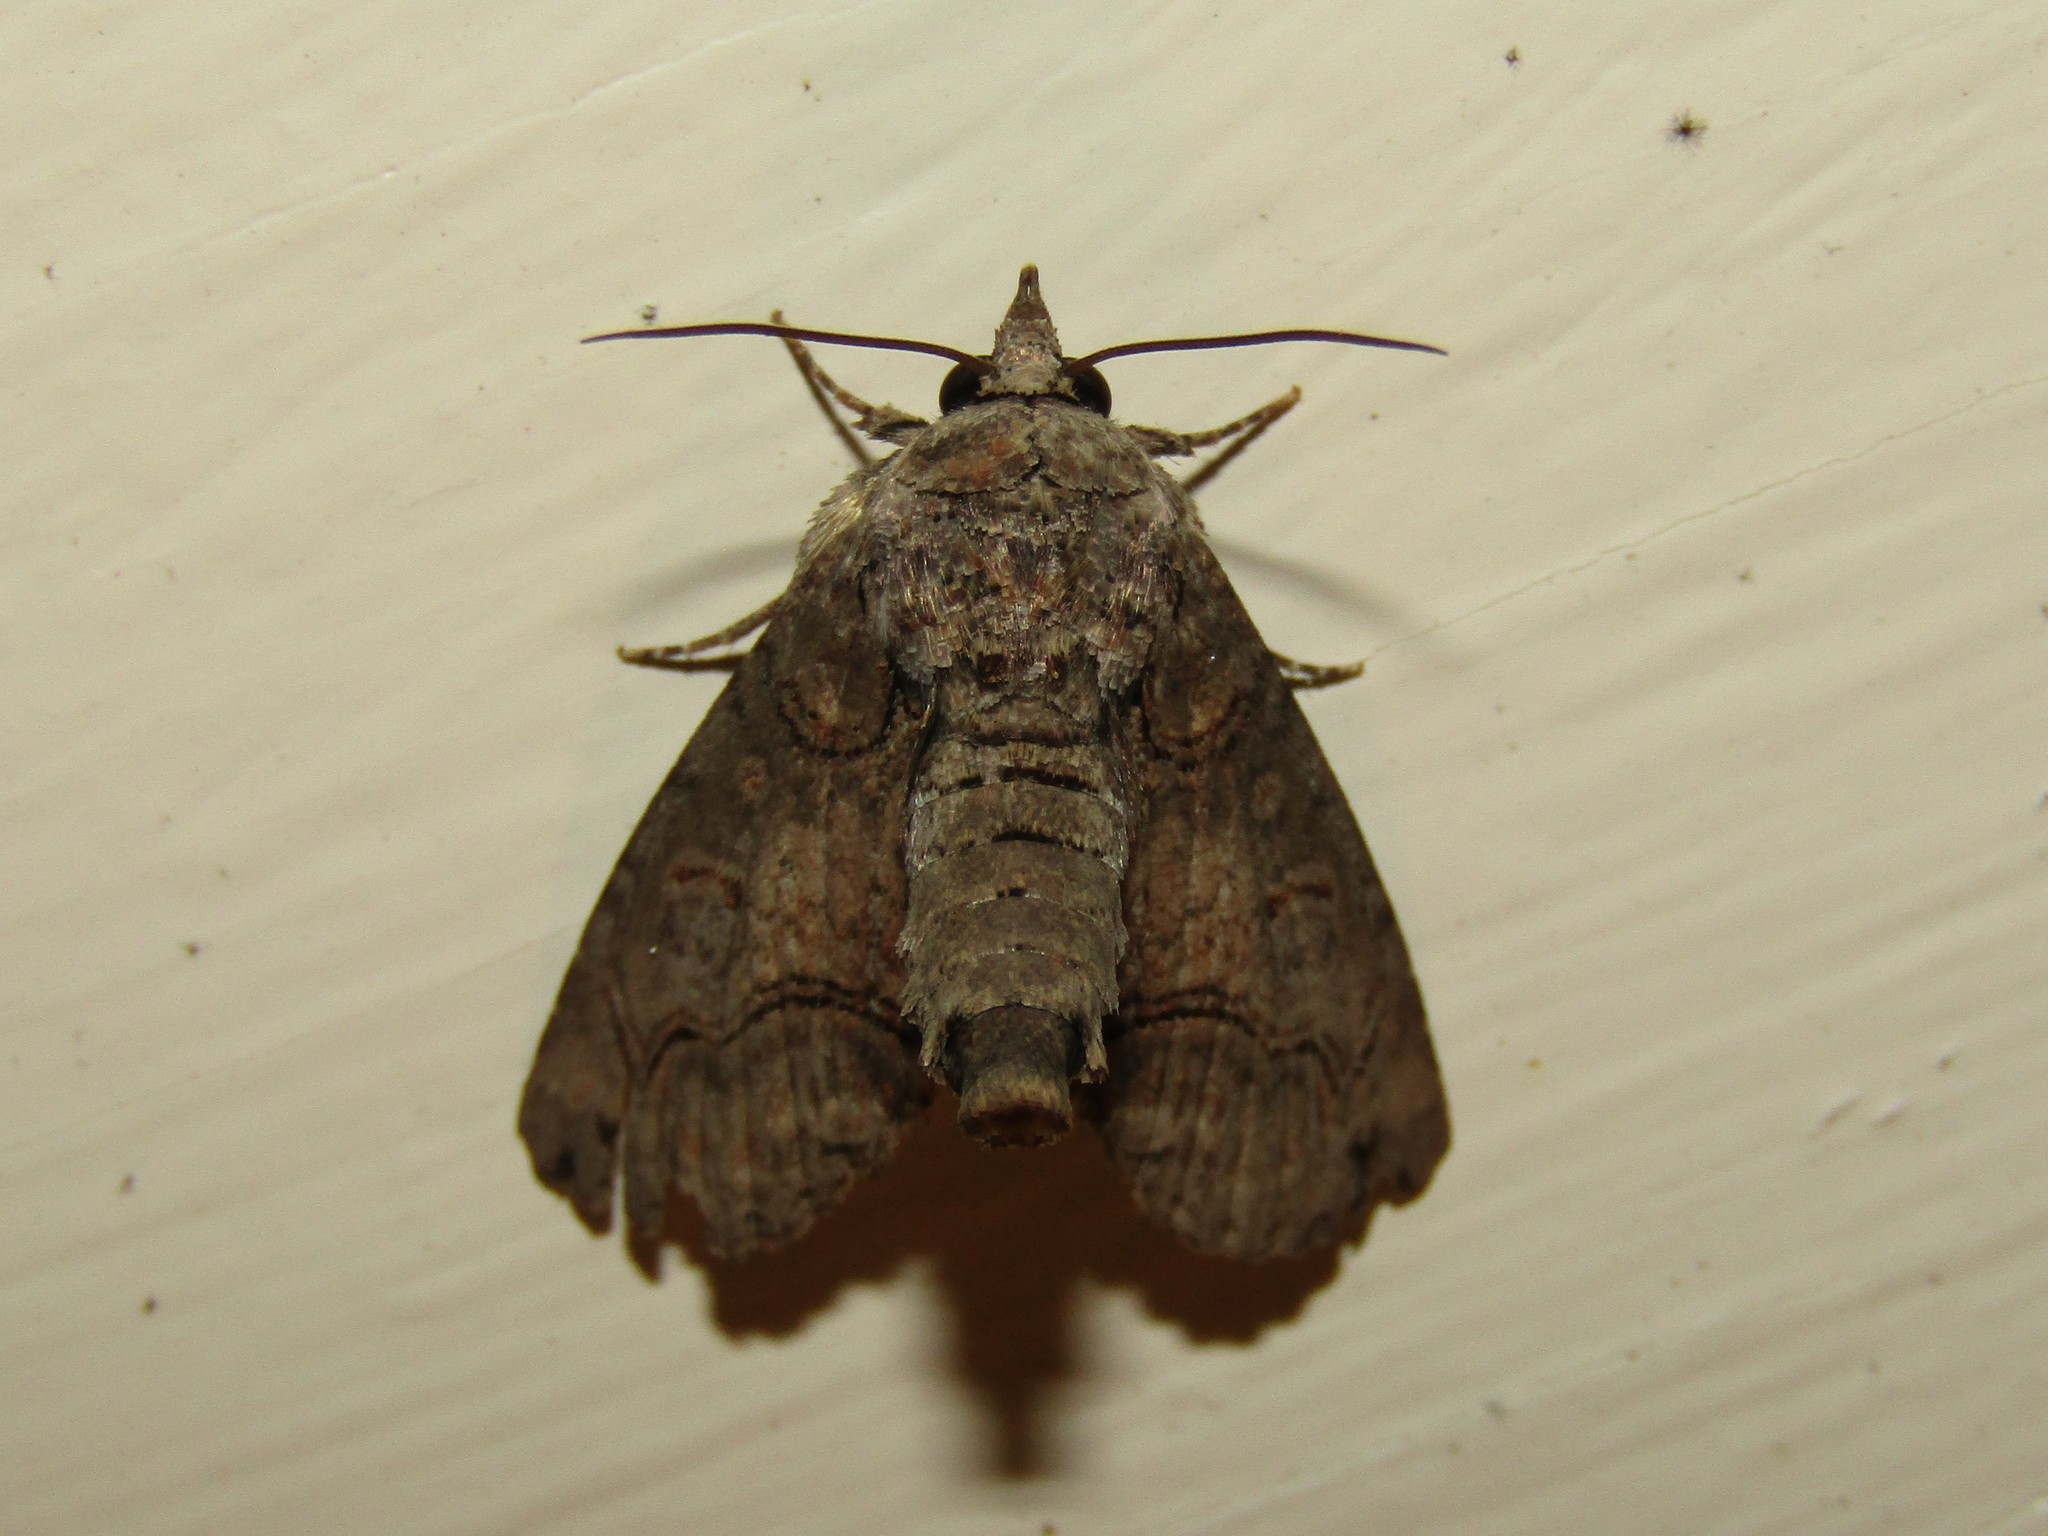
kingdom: Animalia
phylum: Arthropoda
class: Insecta
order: Lepidoptera
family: Euteliidae
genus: Paectes
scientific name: Paectes abrostoloides
